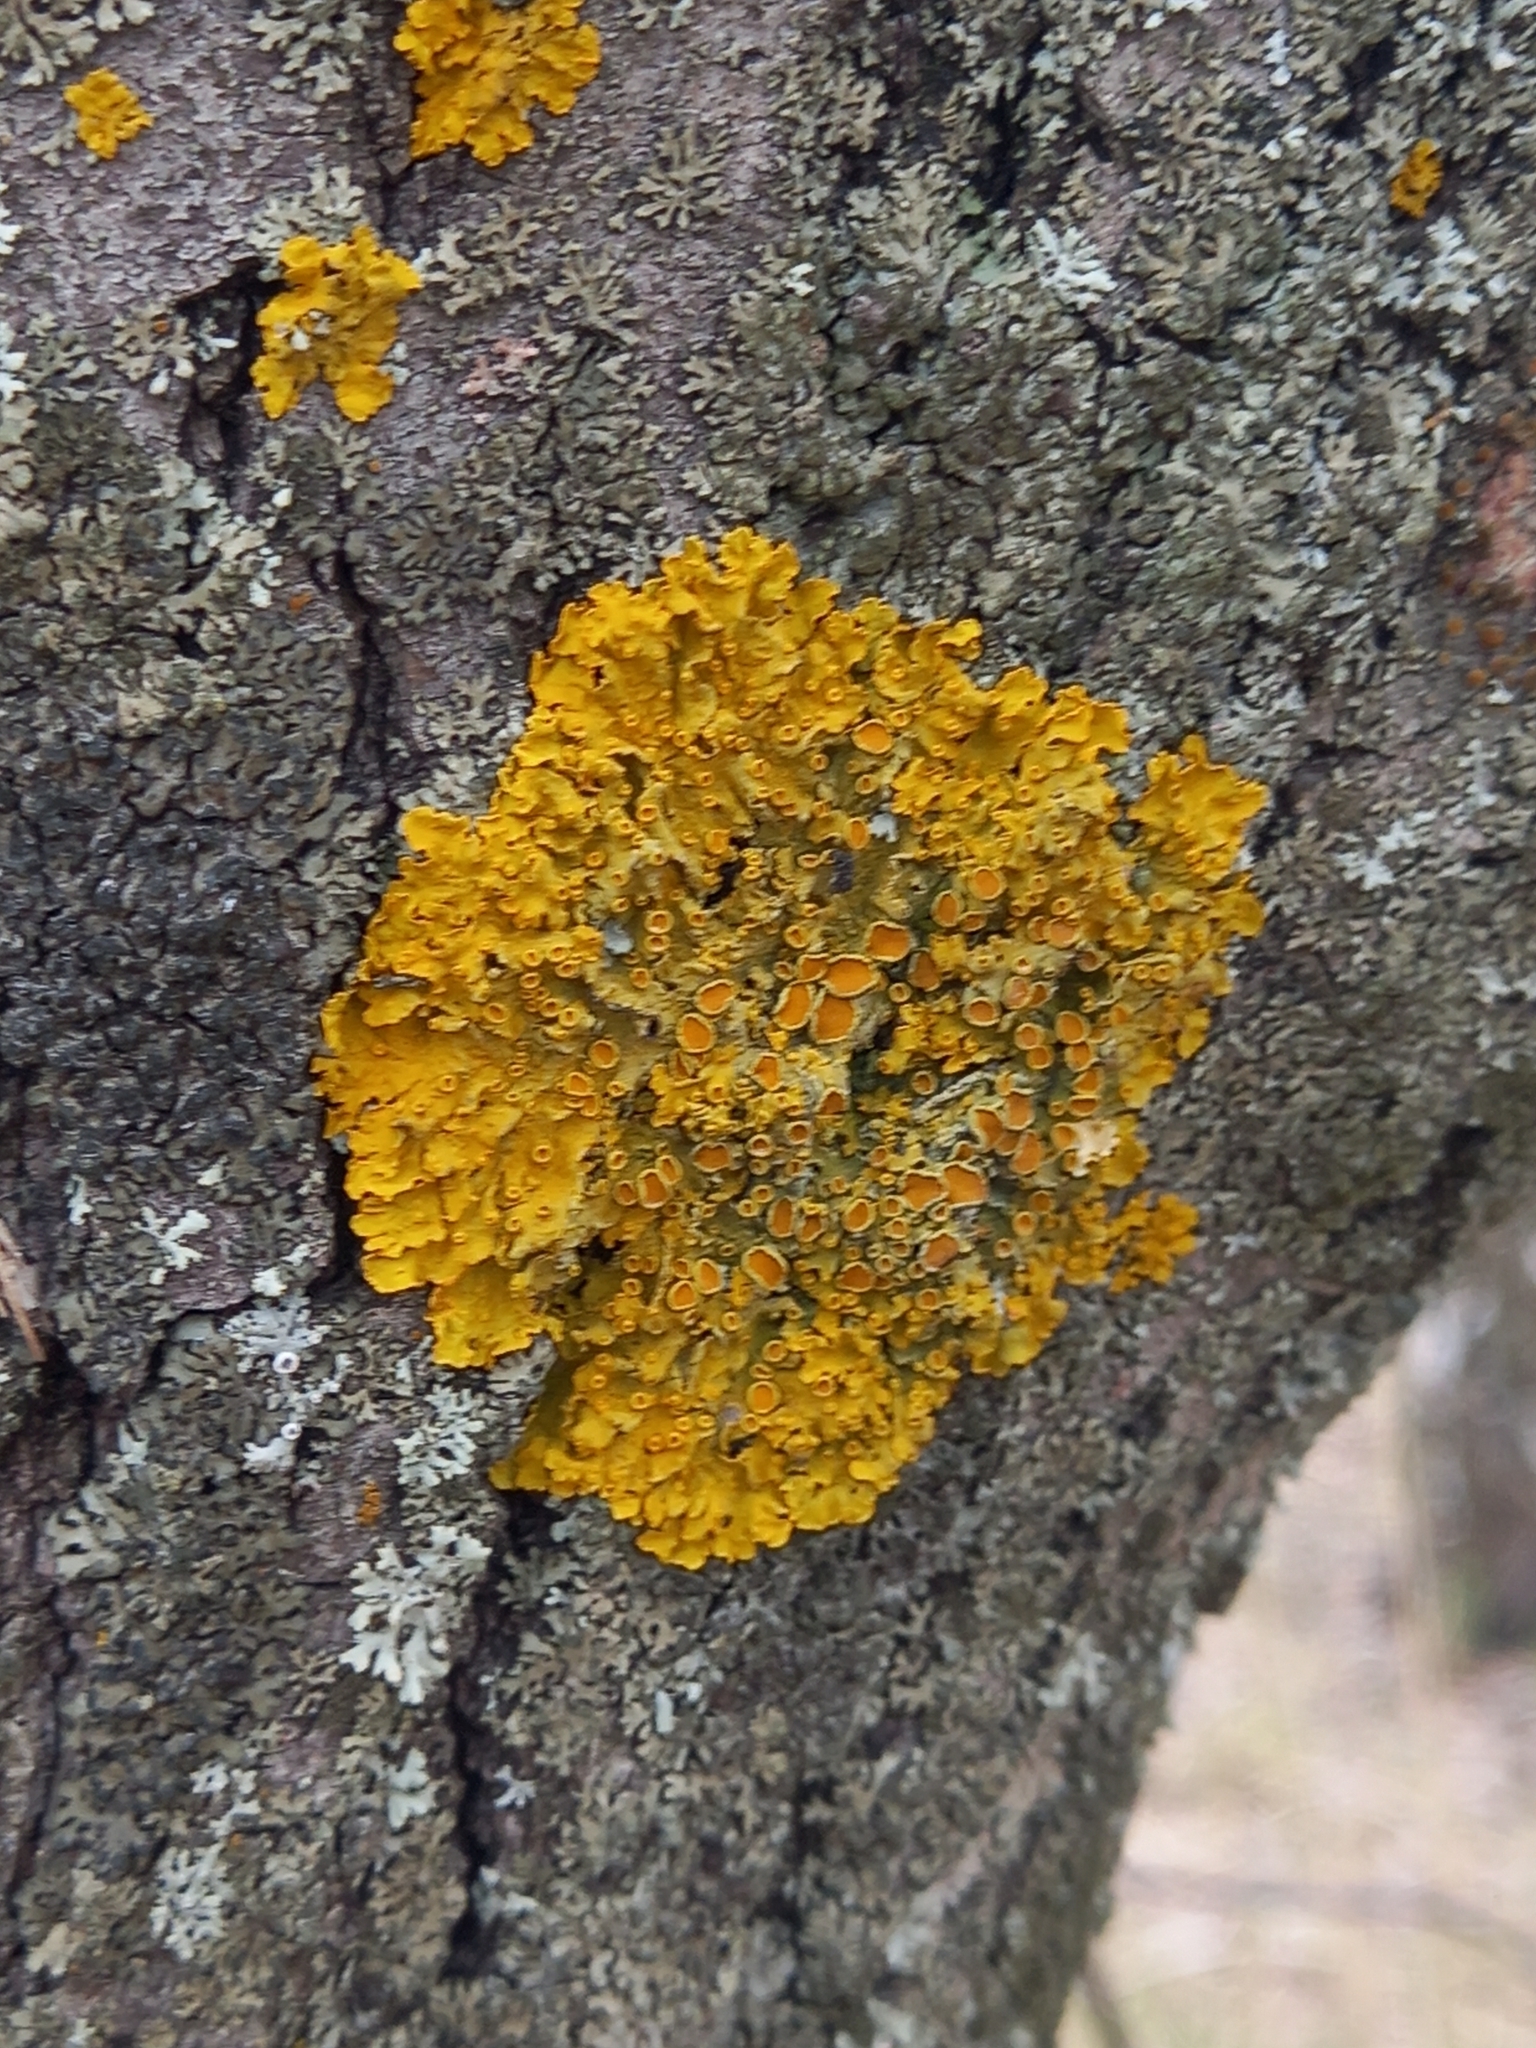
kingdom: Fungi
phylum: Ascomycota
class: Lecanoromycetes
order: Teloschistales
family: Teloschistaceae
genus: Xanthoria
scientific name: Xanthoria parietina
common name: Common orange lichen
